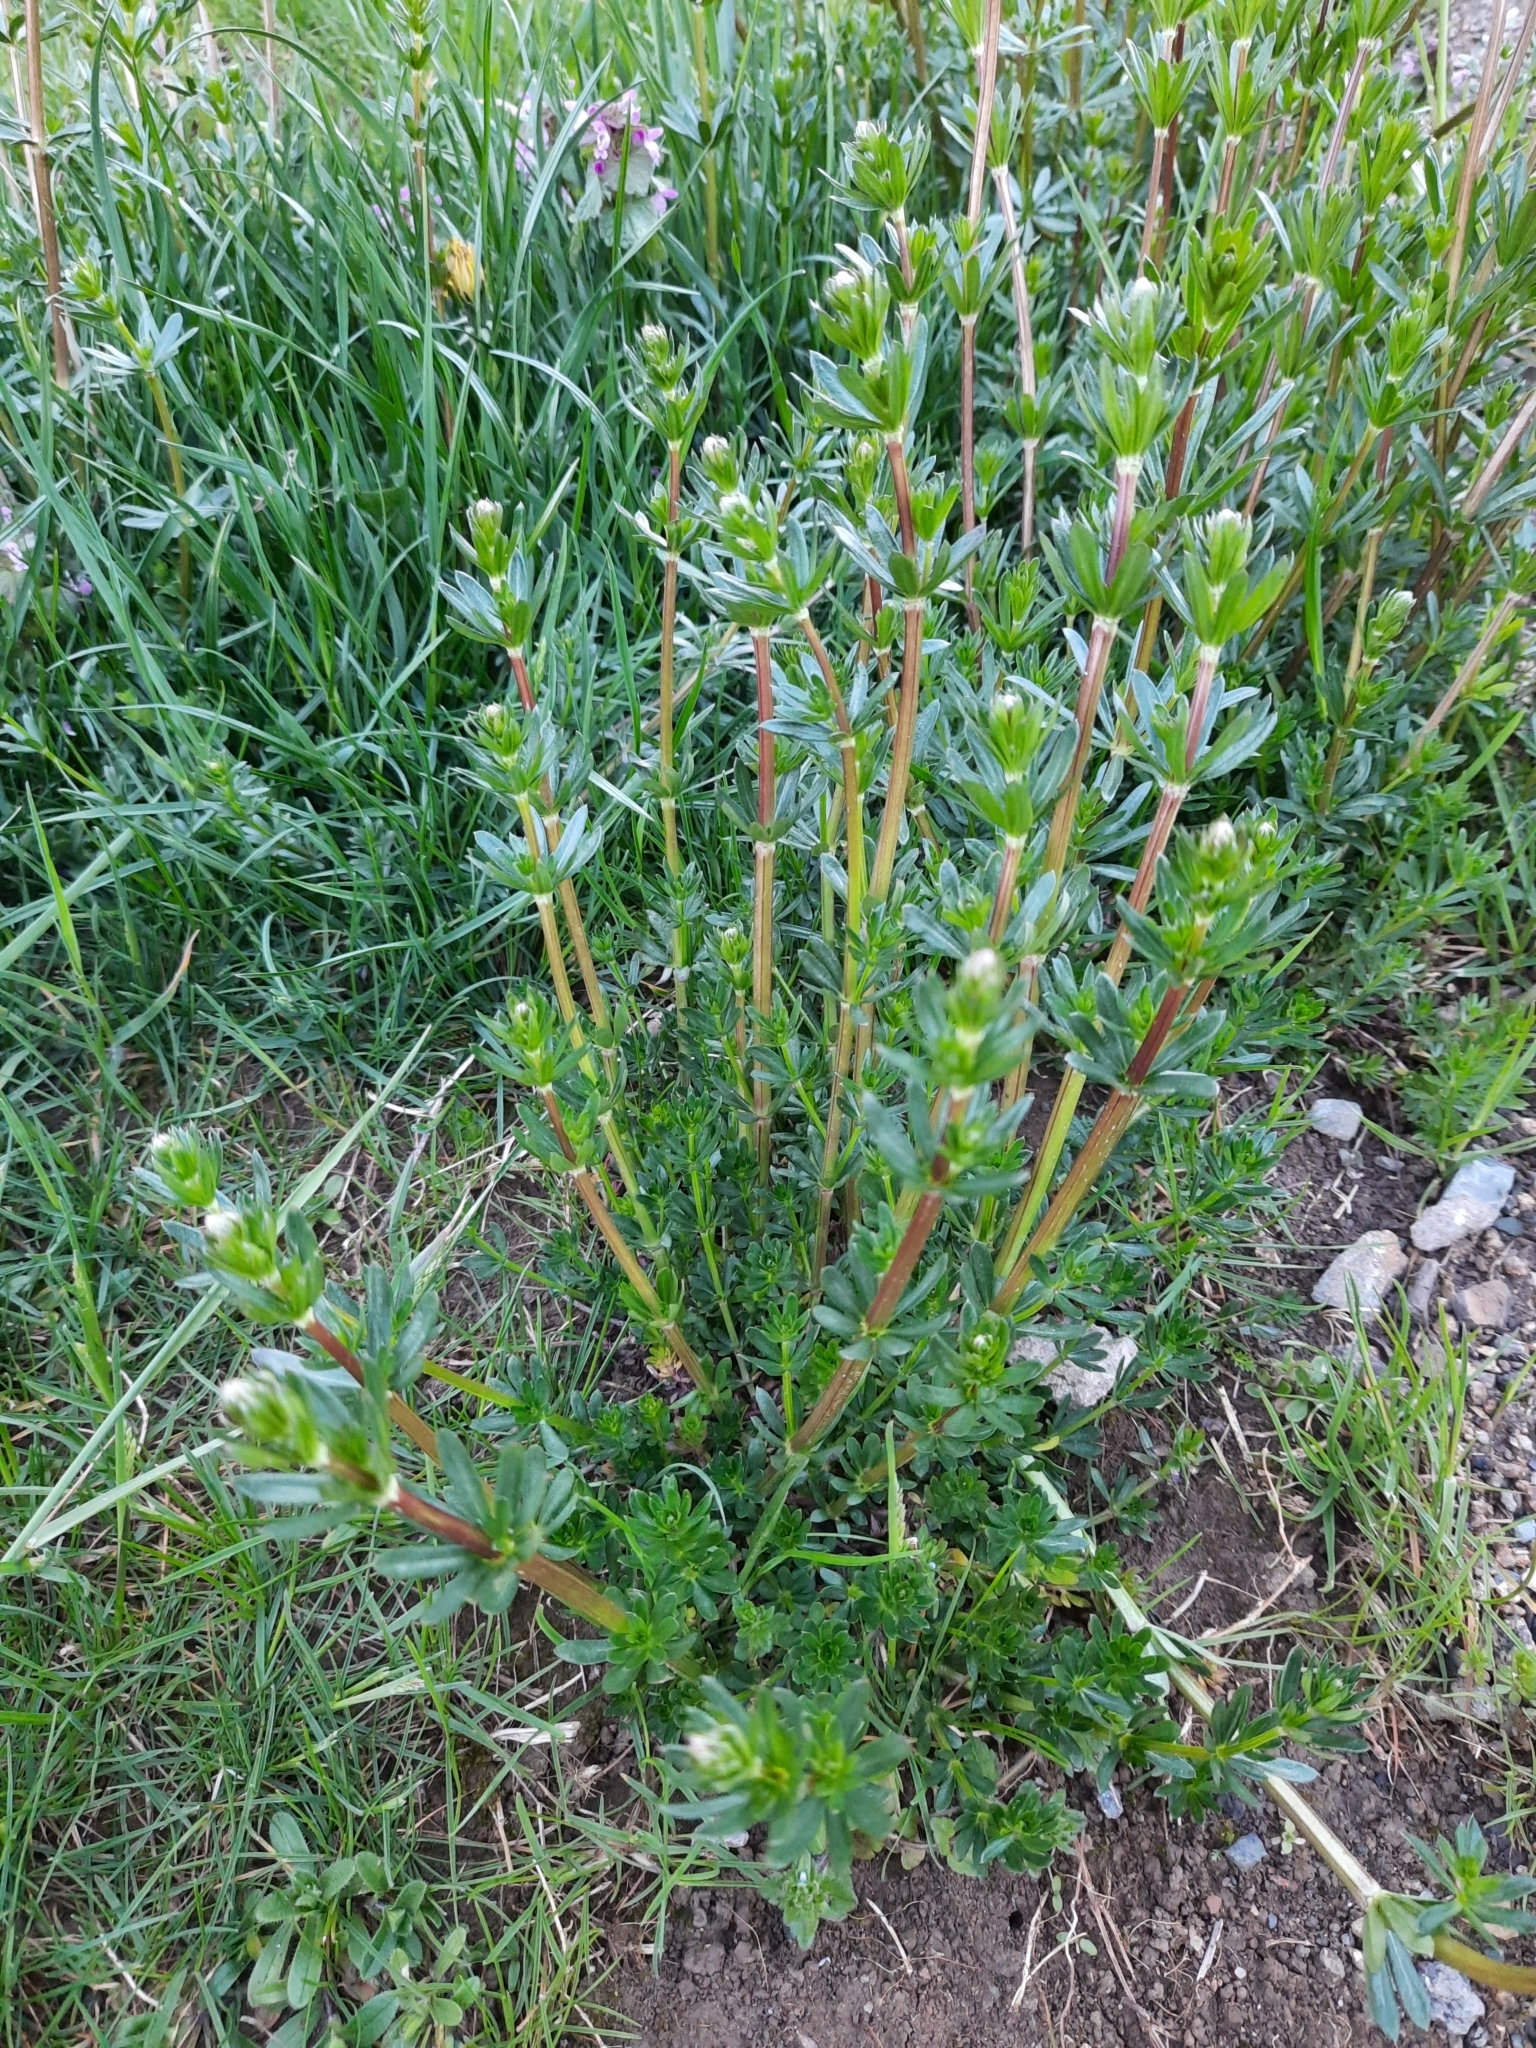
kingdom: Plantae
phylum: Tracheophyta
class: Magnoliopsida
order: Gentianales
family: Rubiaceae
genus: Galium
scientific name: Galium album
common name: White bedstraw
